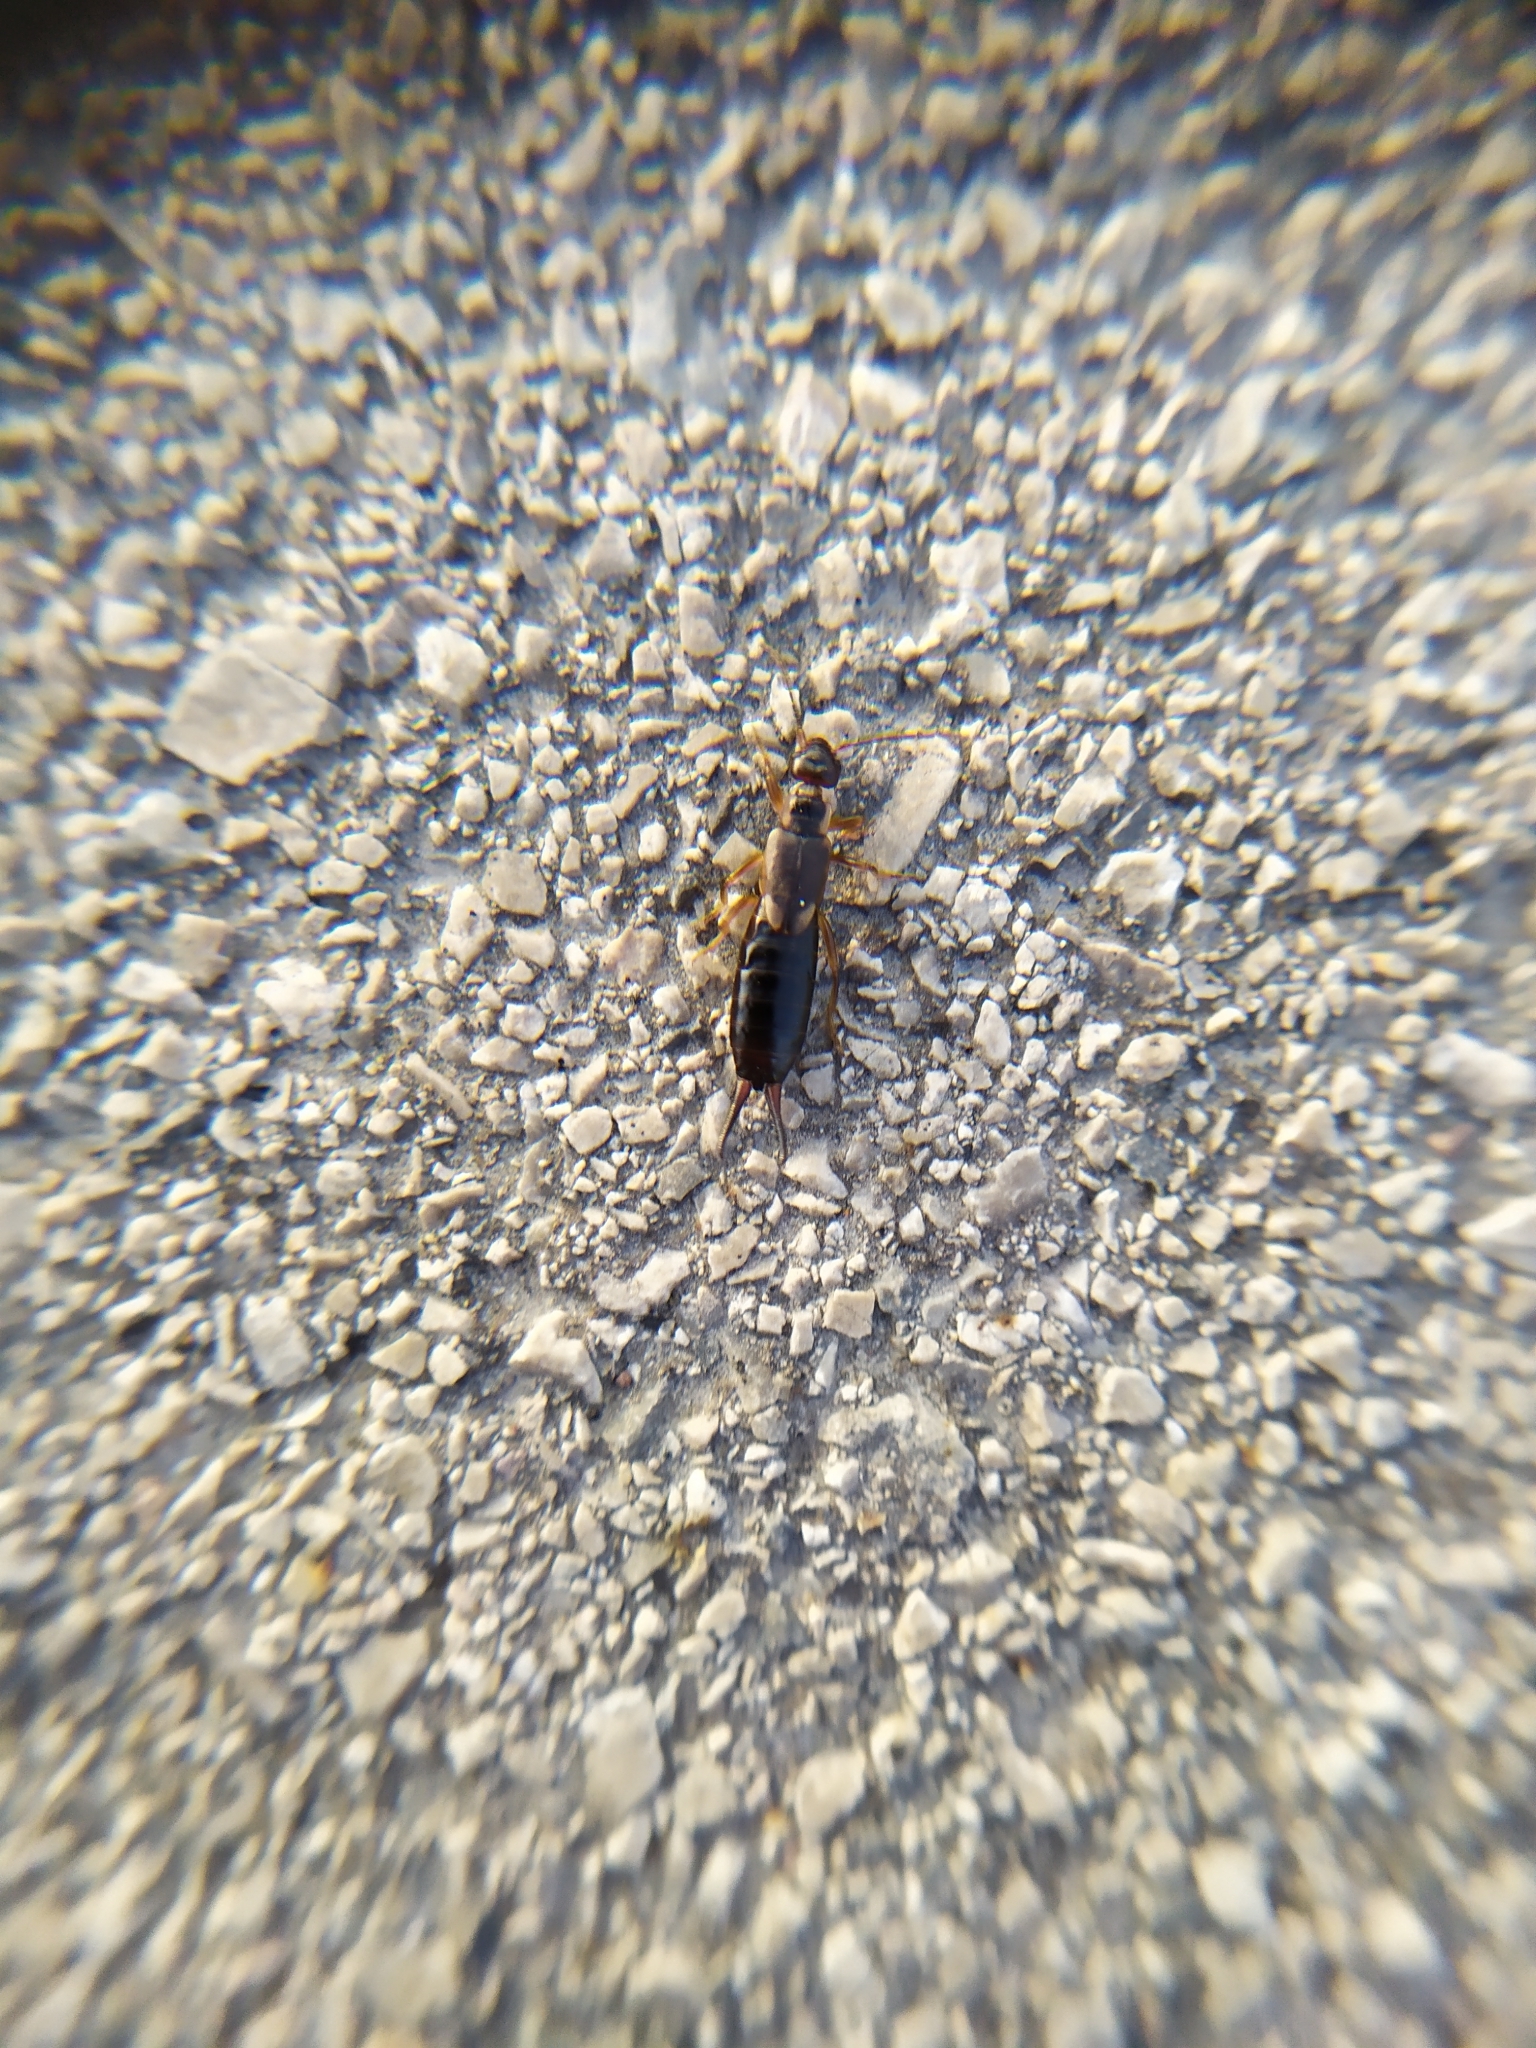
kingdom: Animalia
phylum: Arthropoda
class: Insecta
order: Dermaptera
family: Forficulidae
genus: Forficula
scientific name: Forficula
